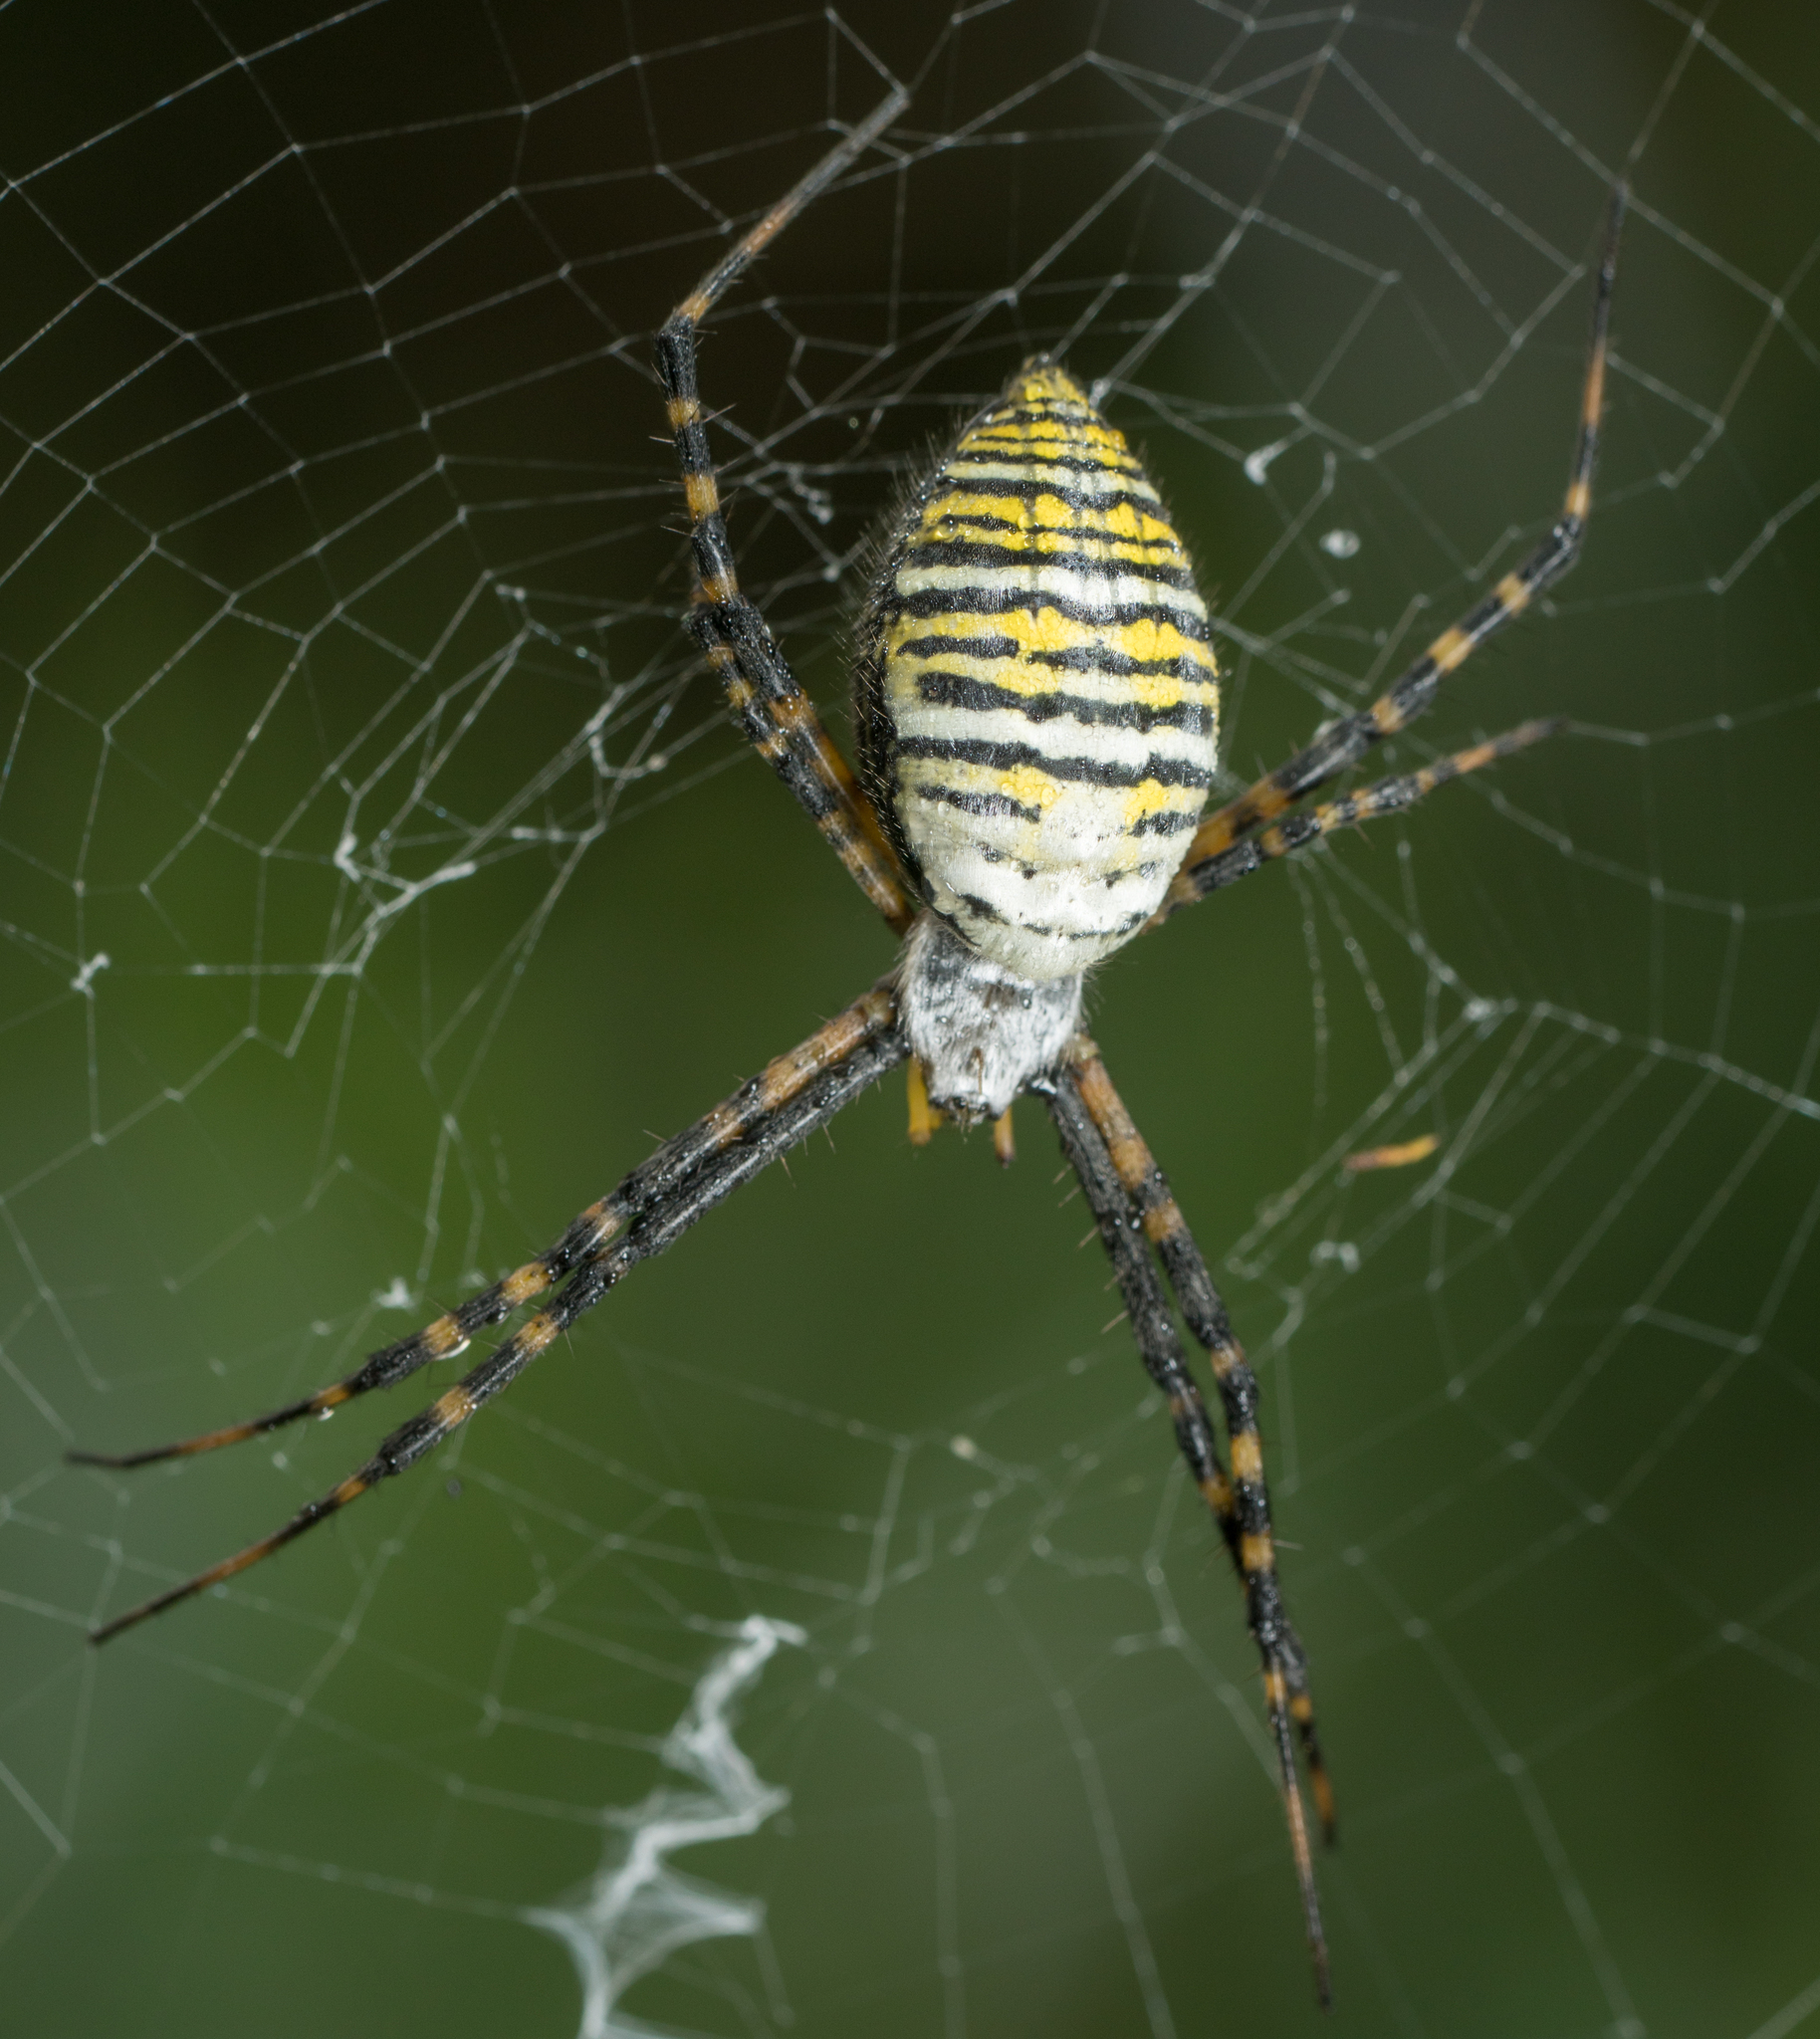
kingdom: Animalia
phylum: Arthropoda
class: Arachnida
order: Araneae
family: Araneidae
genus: Argiope
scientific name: Argiope trifasciata
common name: Banded garden spider
